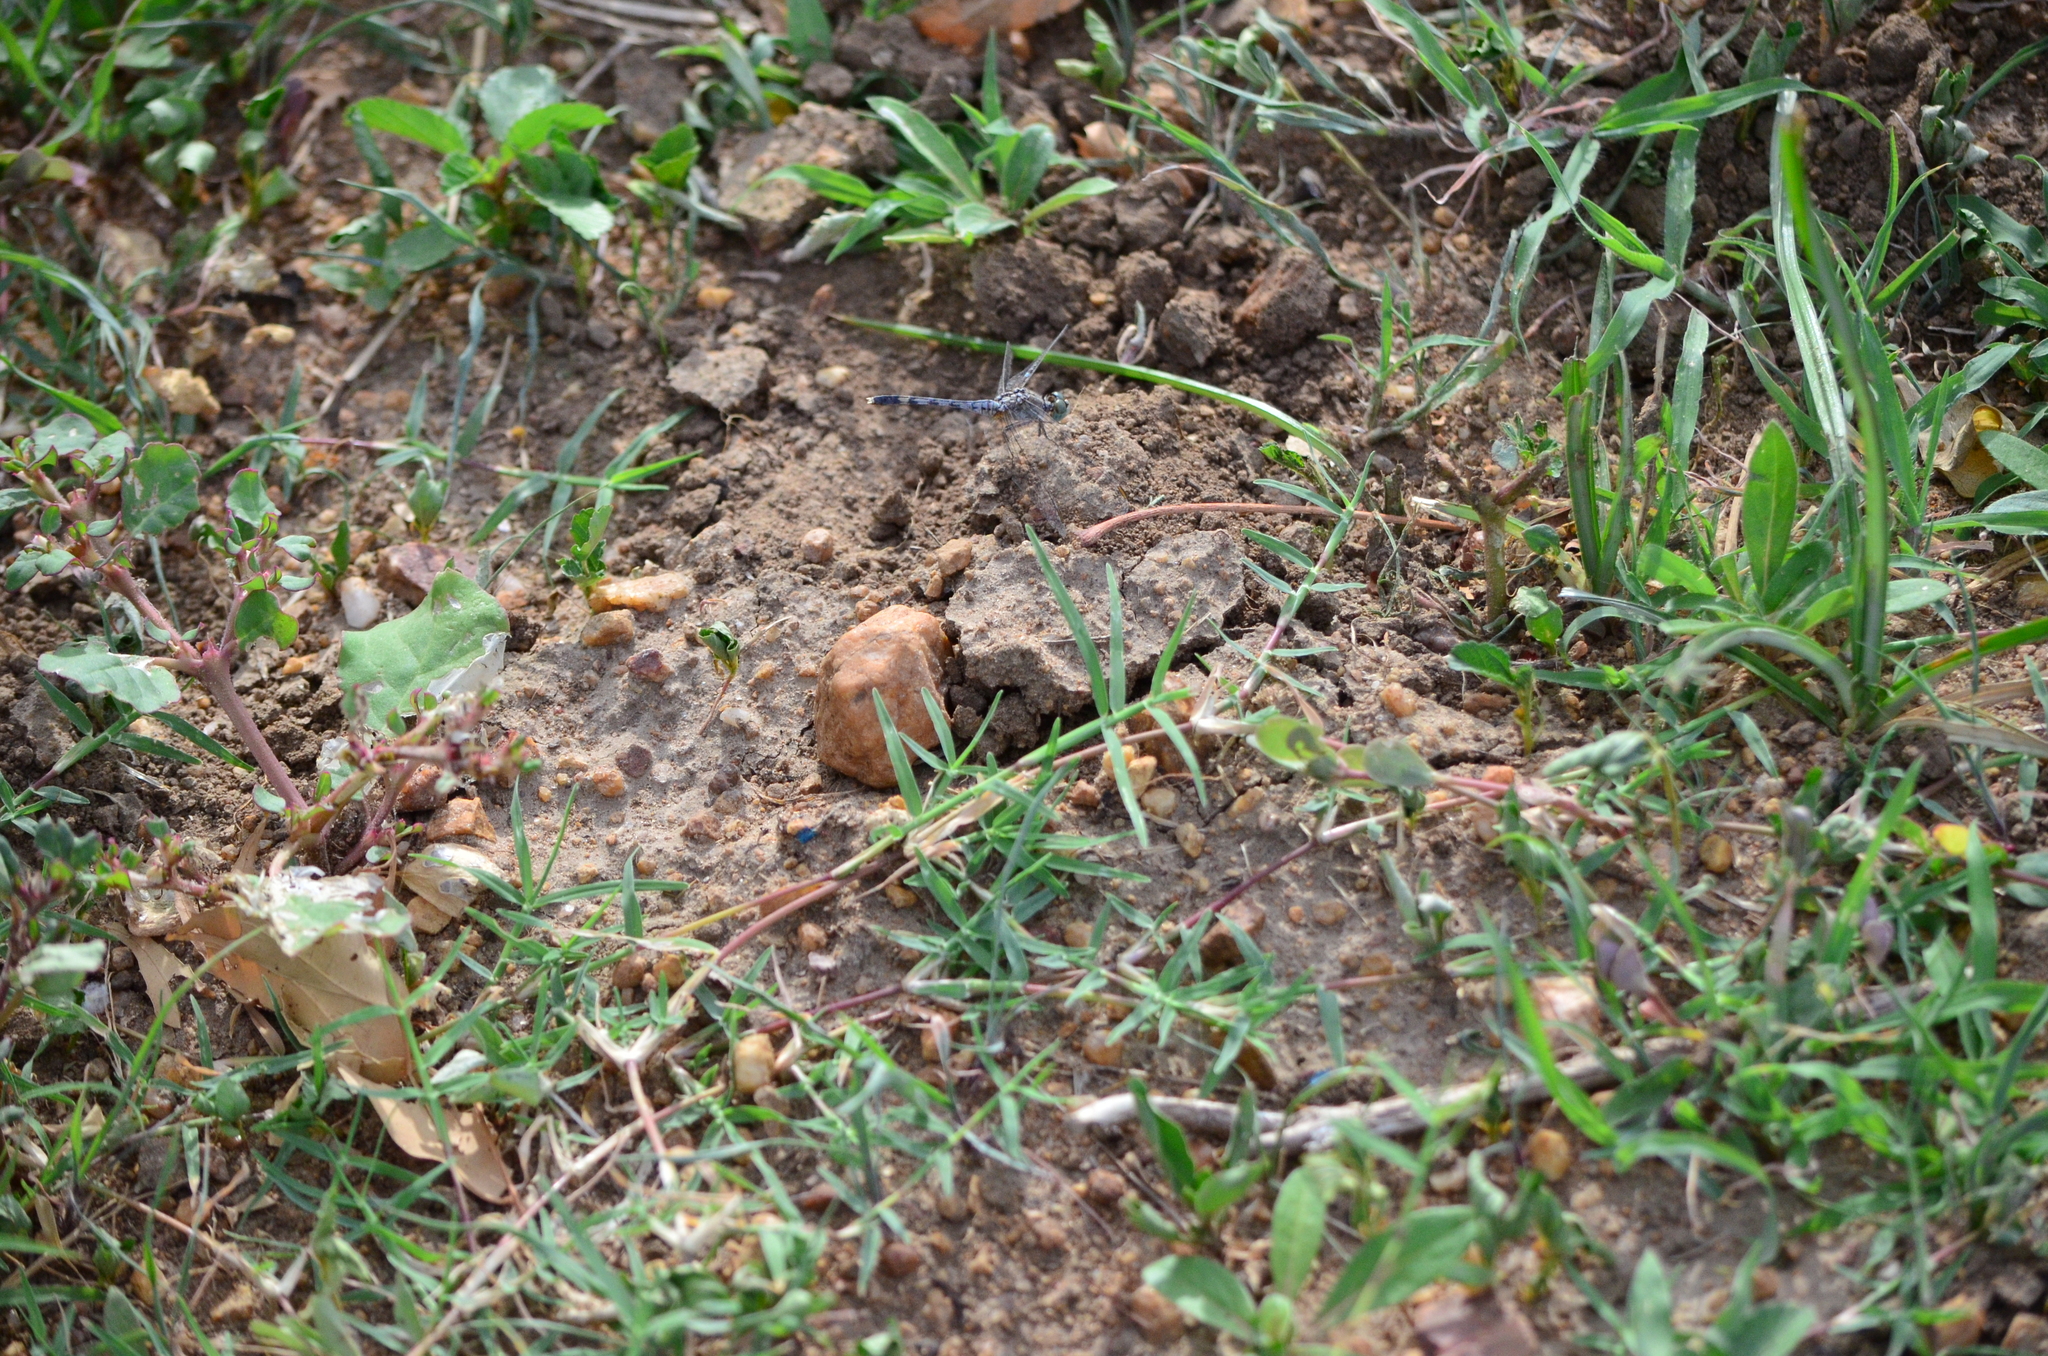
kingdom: Animalia
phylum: Arthropoda
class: Insecta
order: Odonata
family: Libellulidae
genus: Diplacodes
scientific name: Diplacodes trivialis
